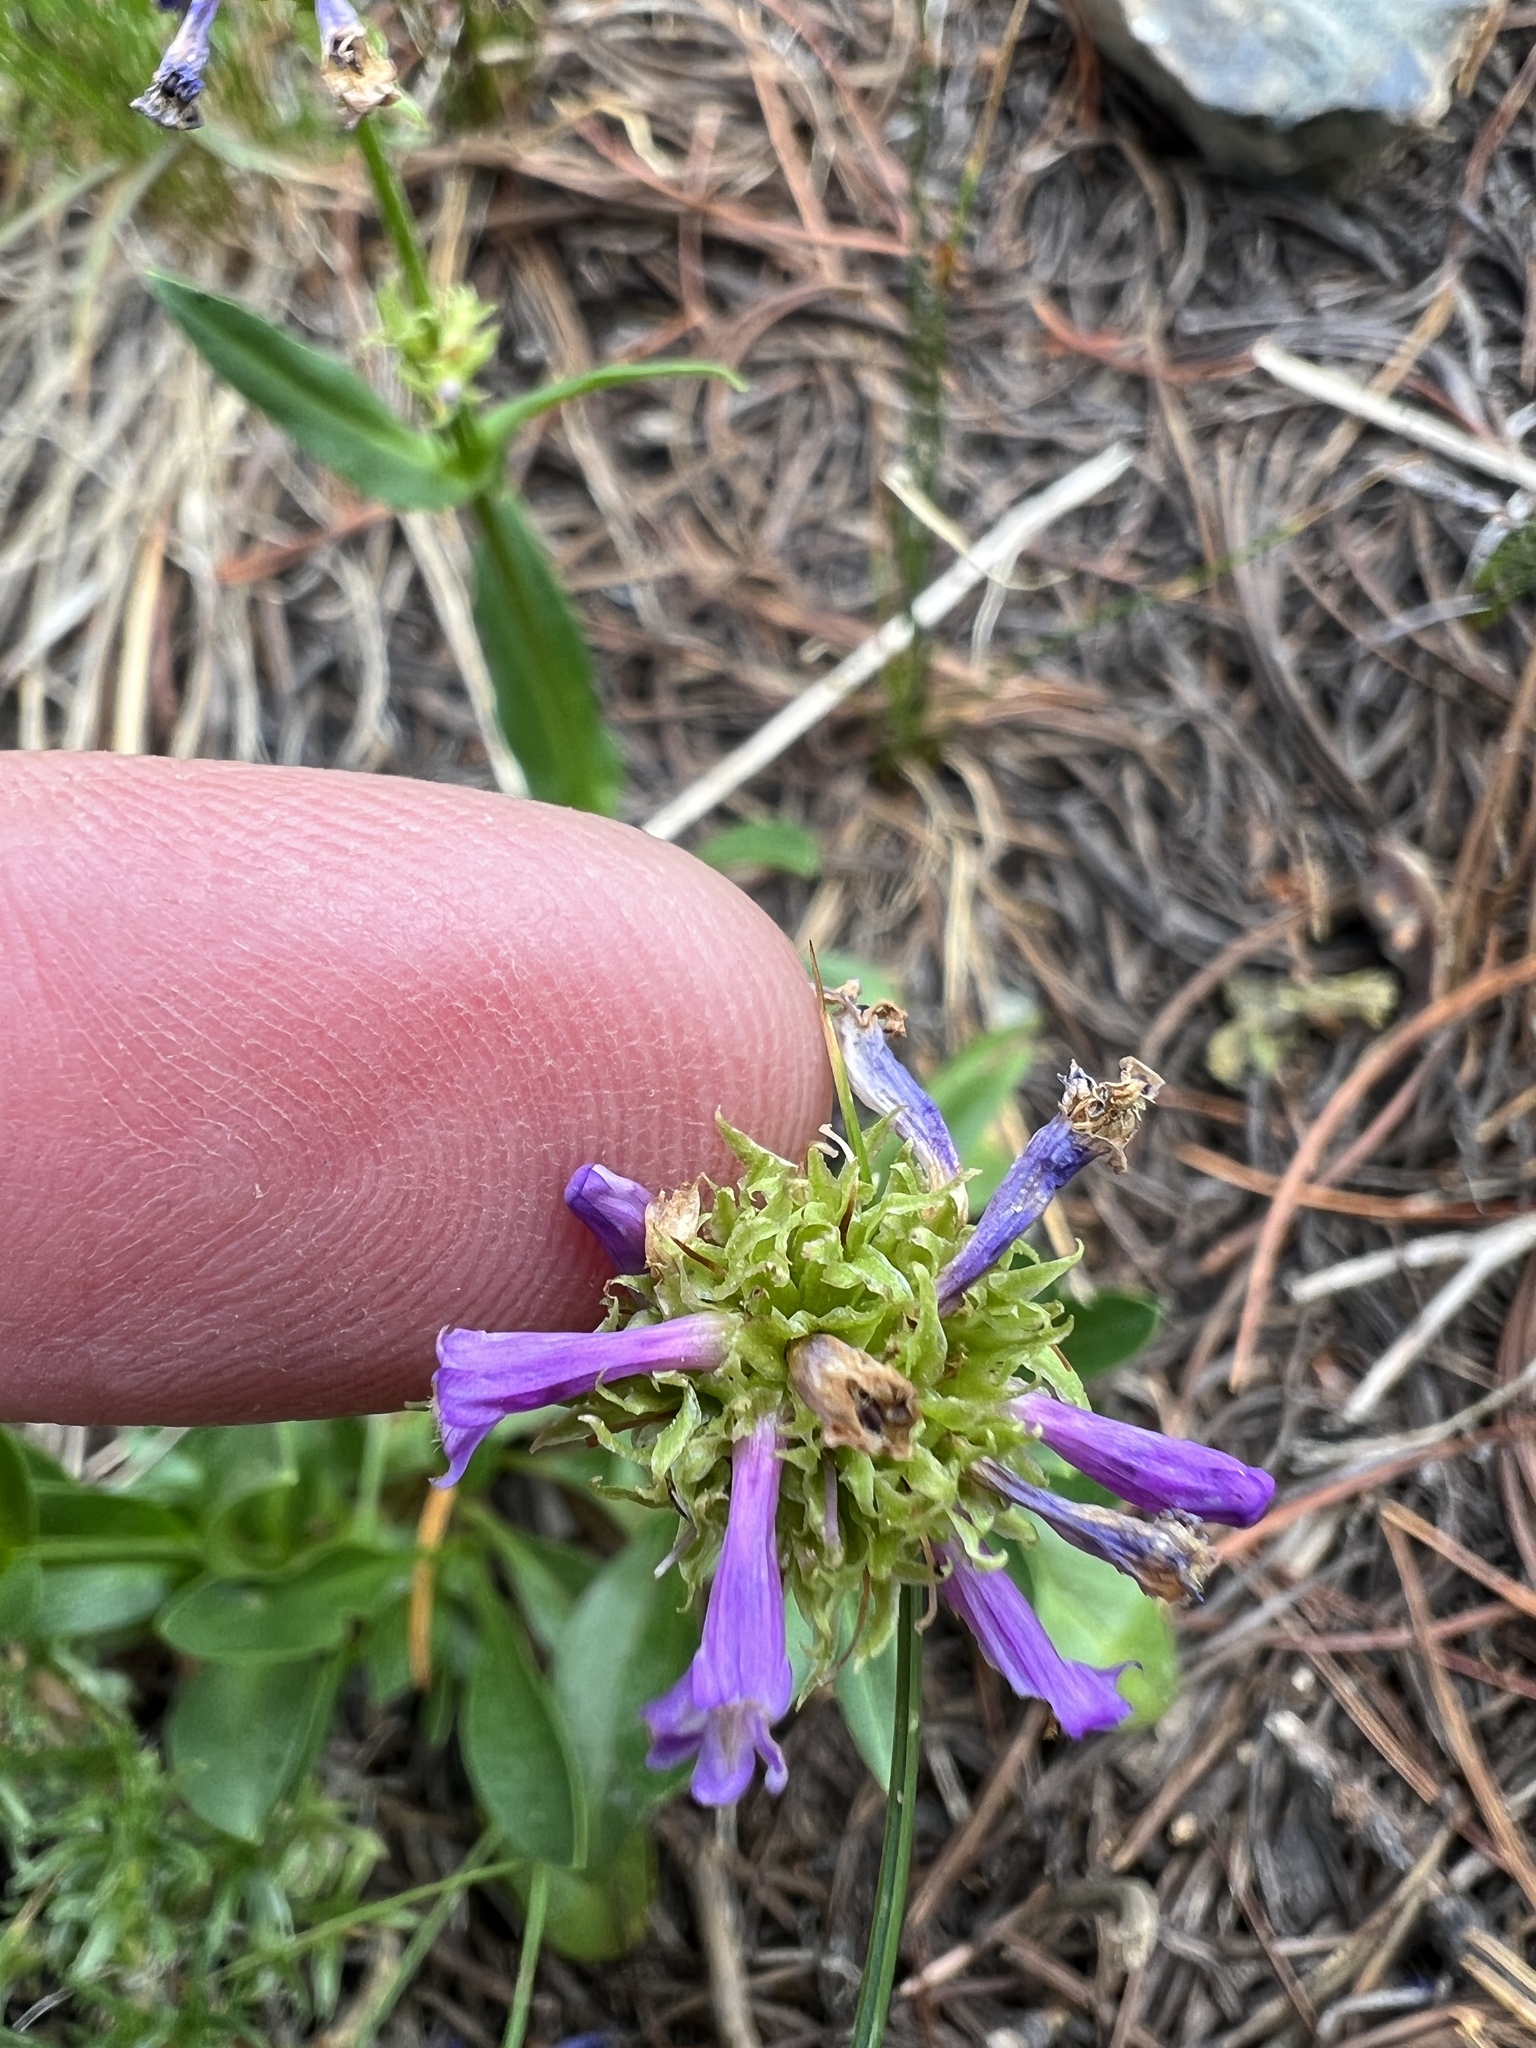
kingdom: Plantae
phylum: Tracheophyta
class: Magnoliopsida
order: Lamiales
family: Plantaginaceae
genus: Penstemon
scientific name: Penstemon procerus
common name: Small-flower penstemon
